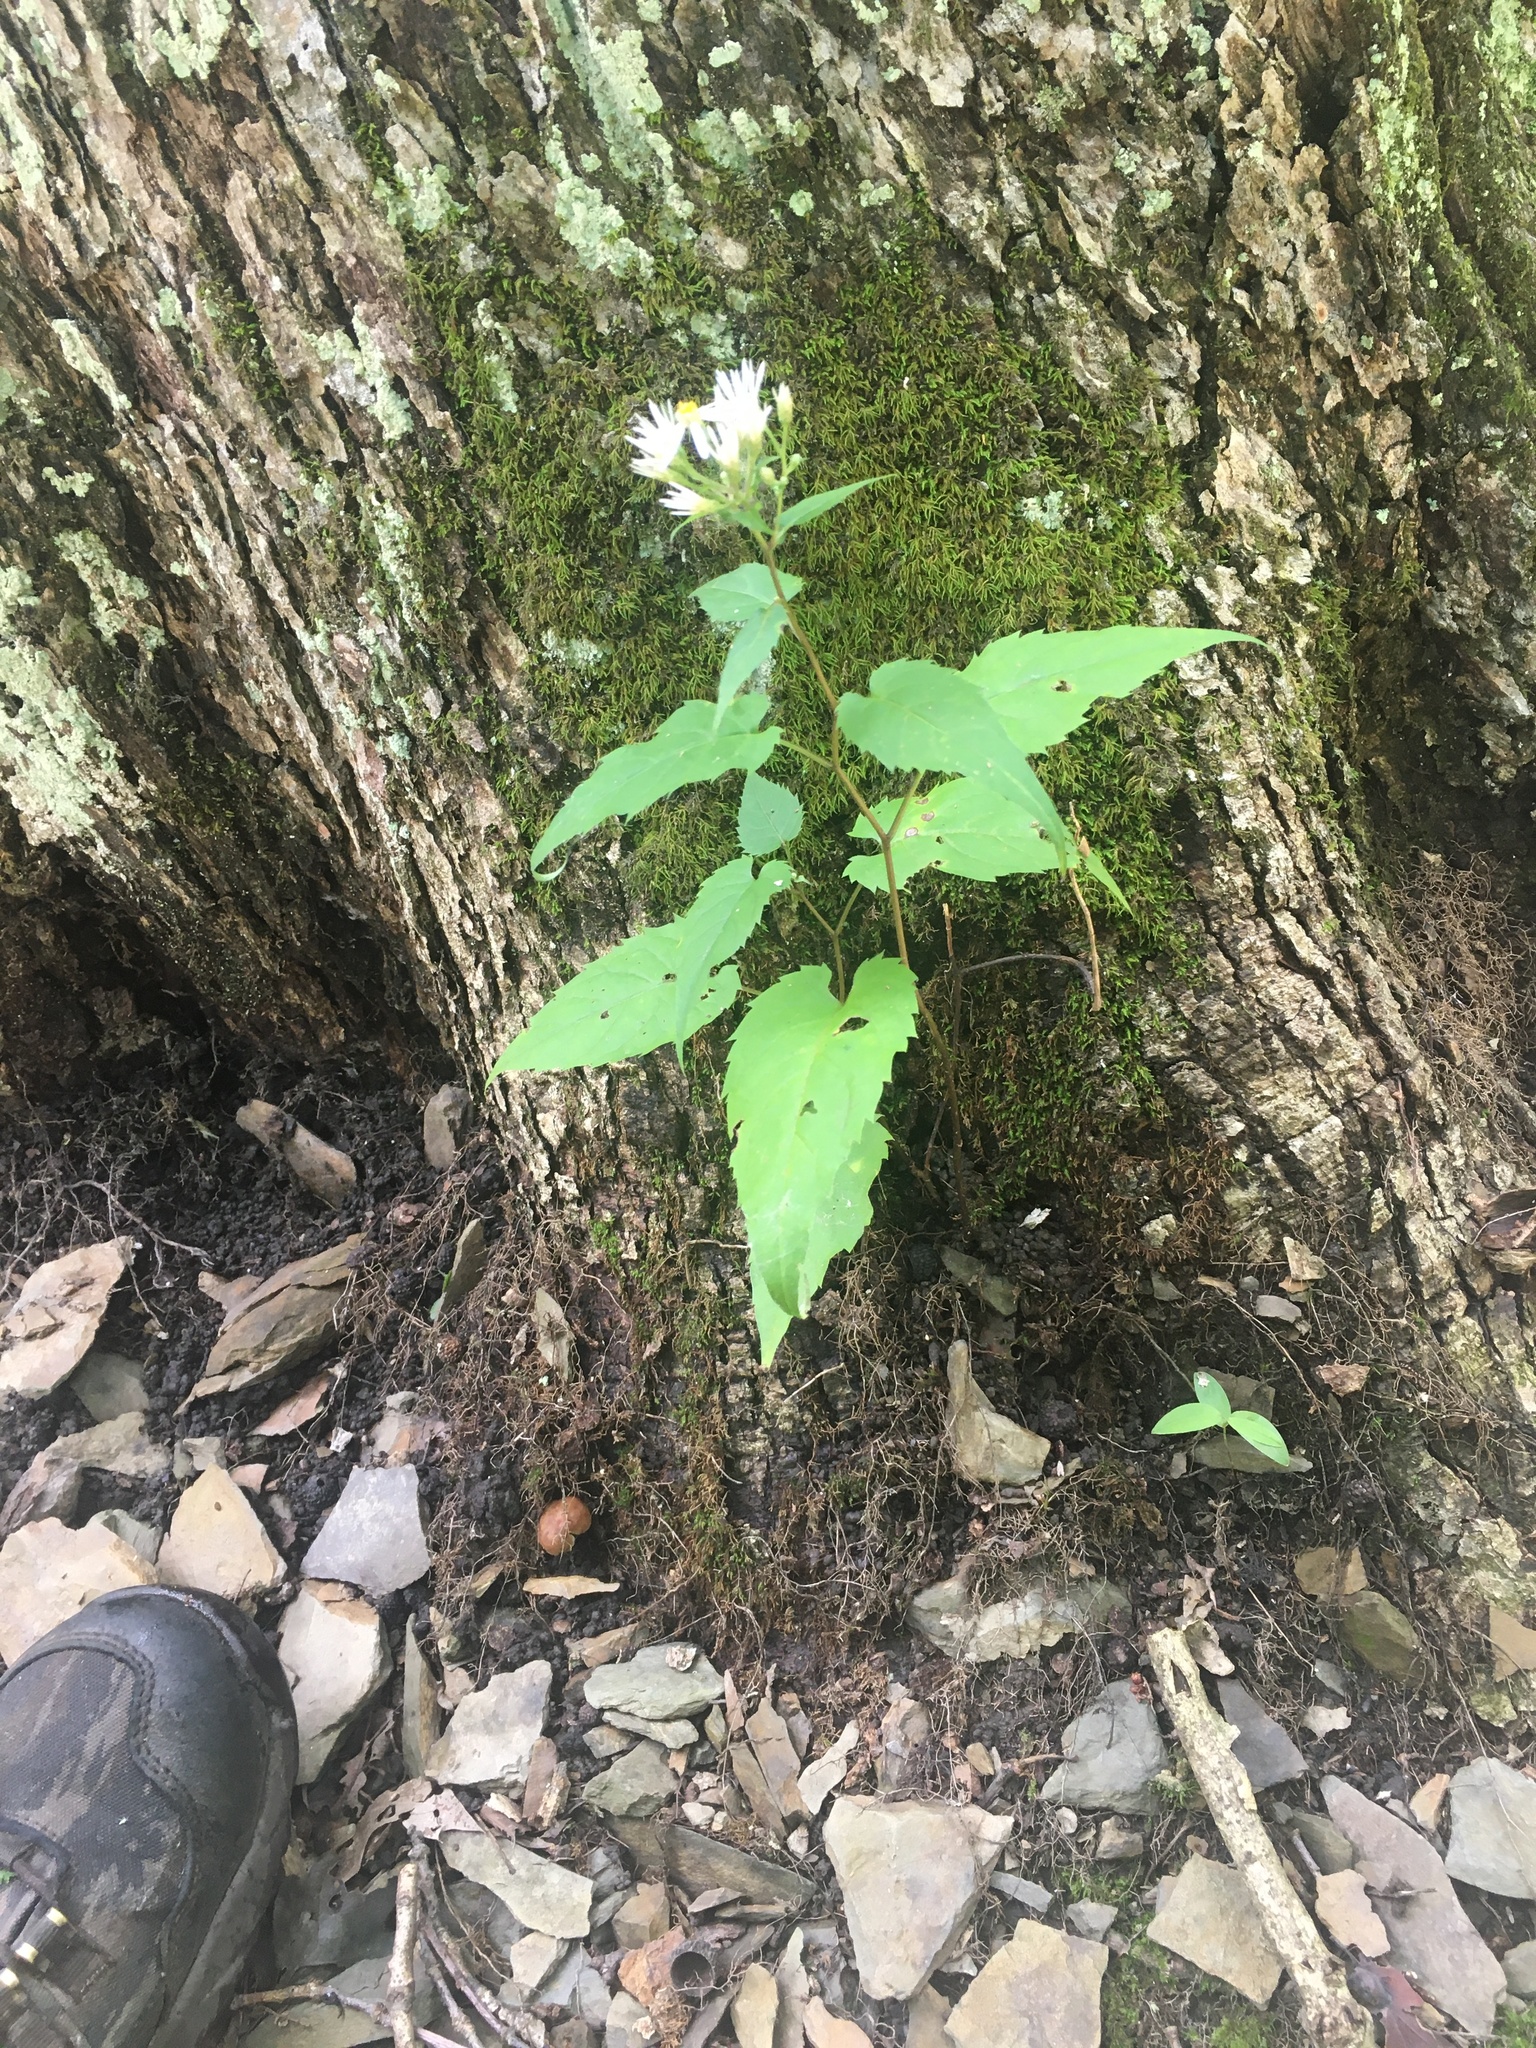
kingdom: Plantae
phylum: Tracheophyta
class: Magnoliopsida
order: Asterales
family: Asteraceae
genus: Eurybia
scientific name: Eurybia divaricata
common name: White wood aster
